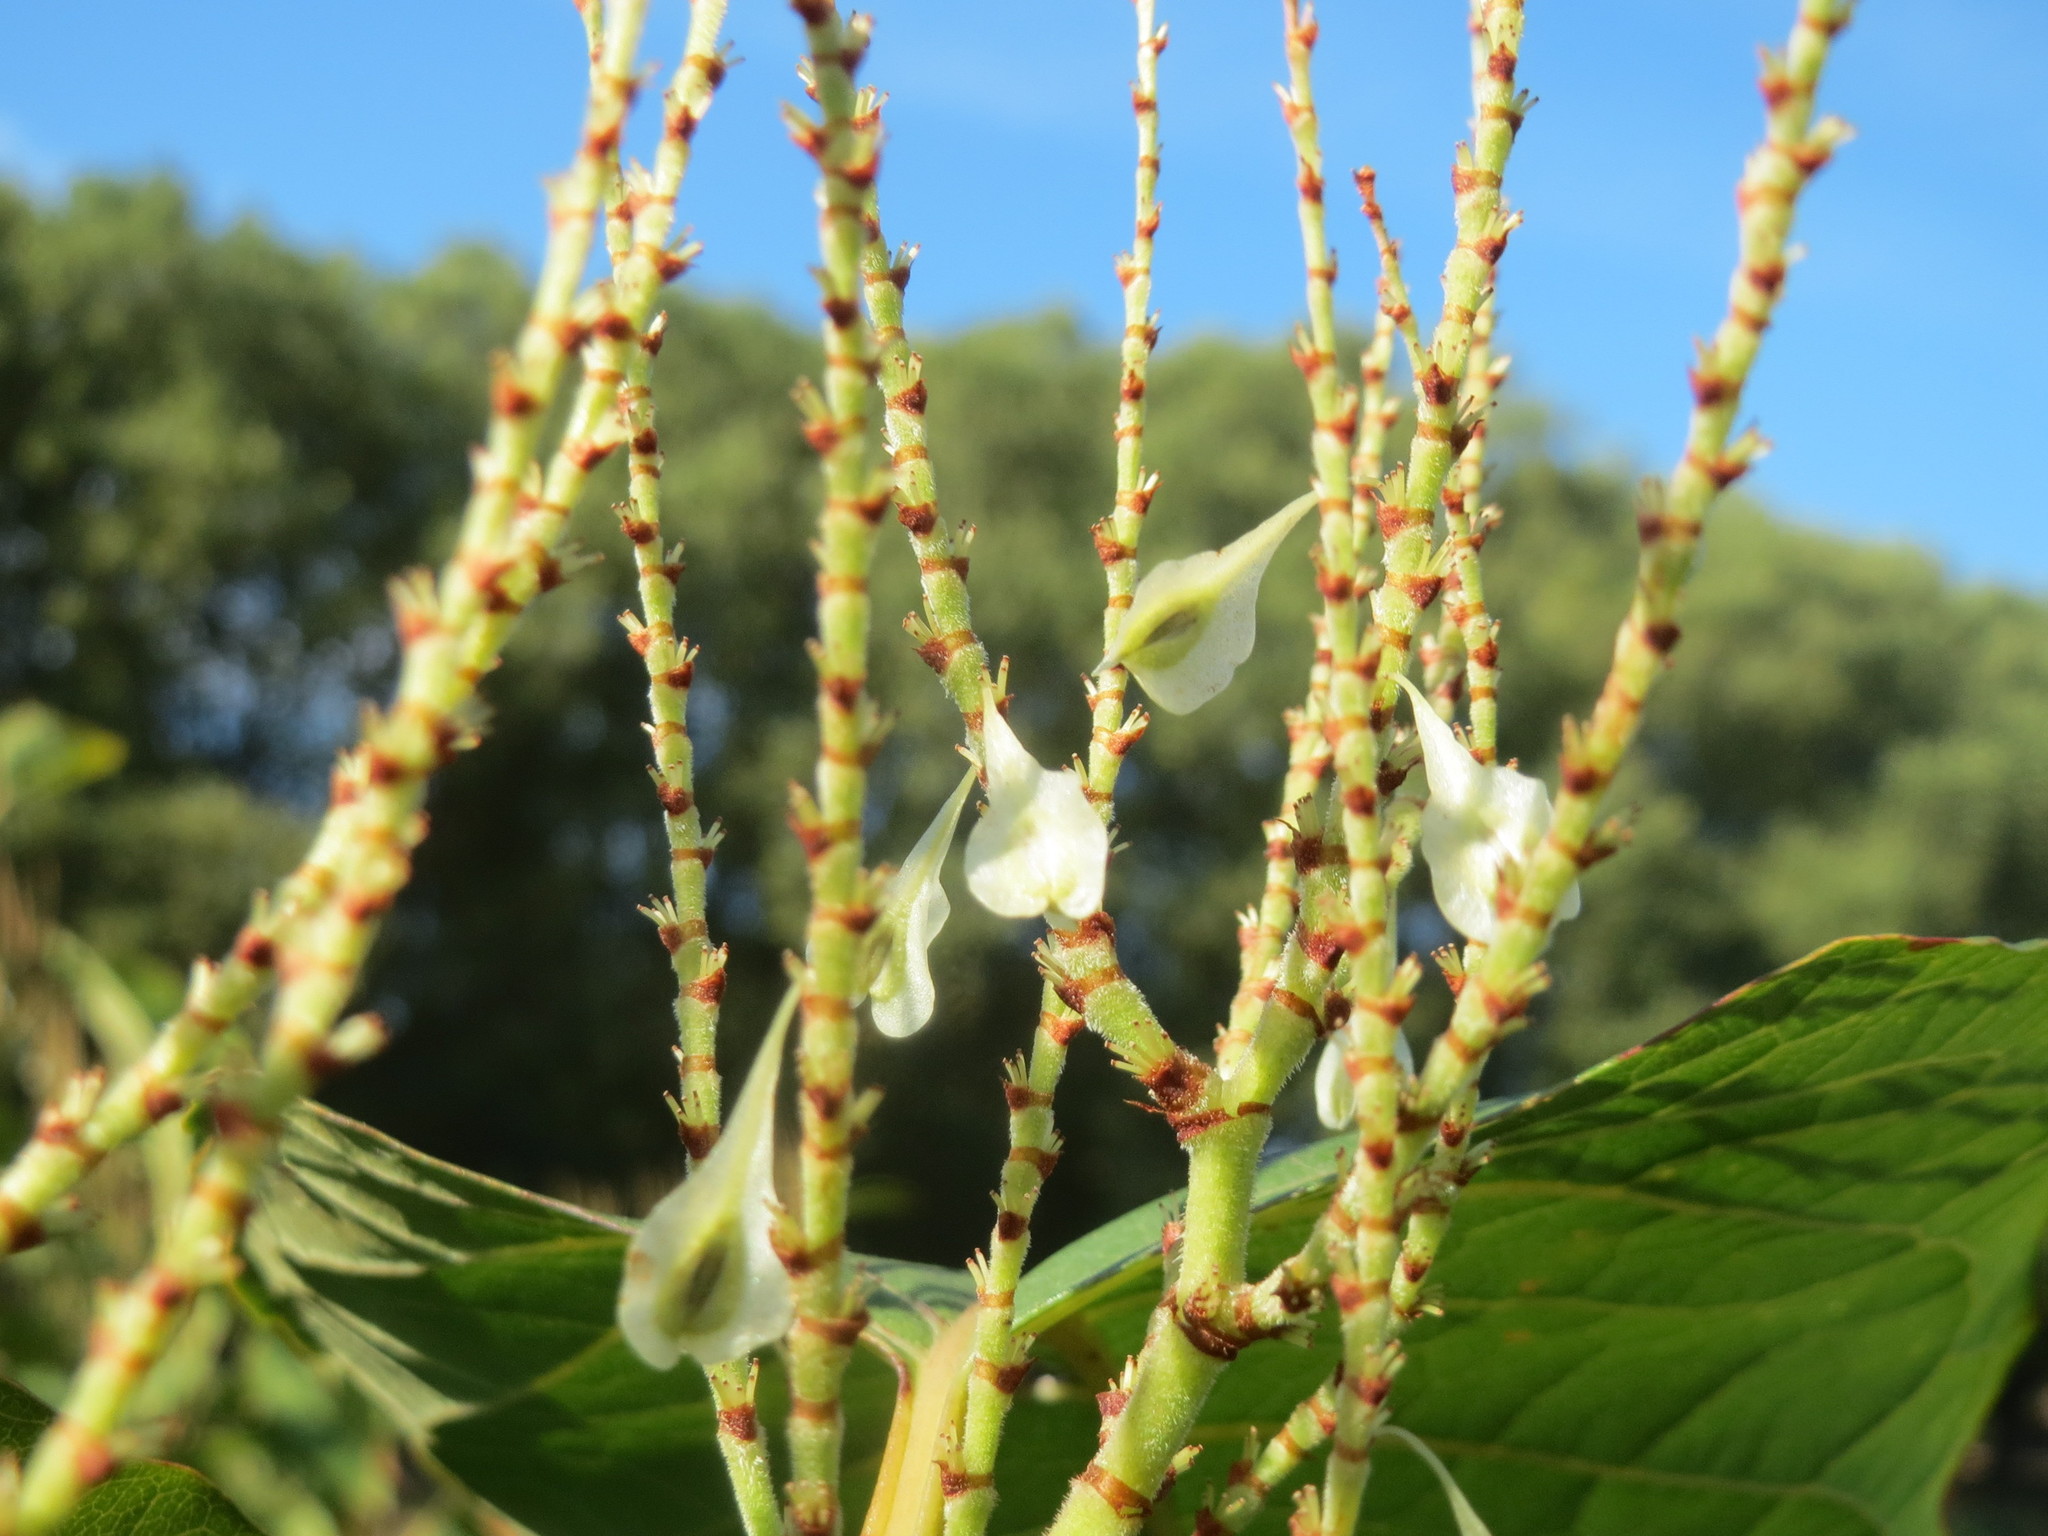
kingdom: Plantae
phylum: Tracheophyta
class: Magnoliopsida
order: Caryophyllales
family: Polygonaceae
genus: Reynoutria
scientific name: Reynoutria japonica
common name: Japanese knotweed
